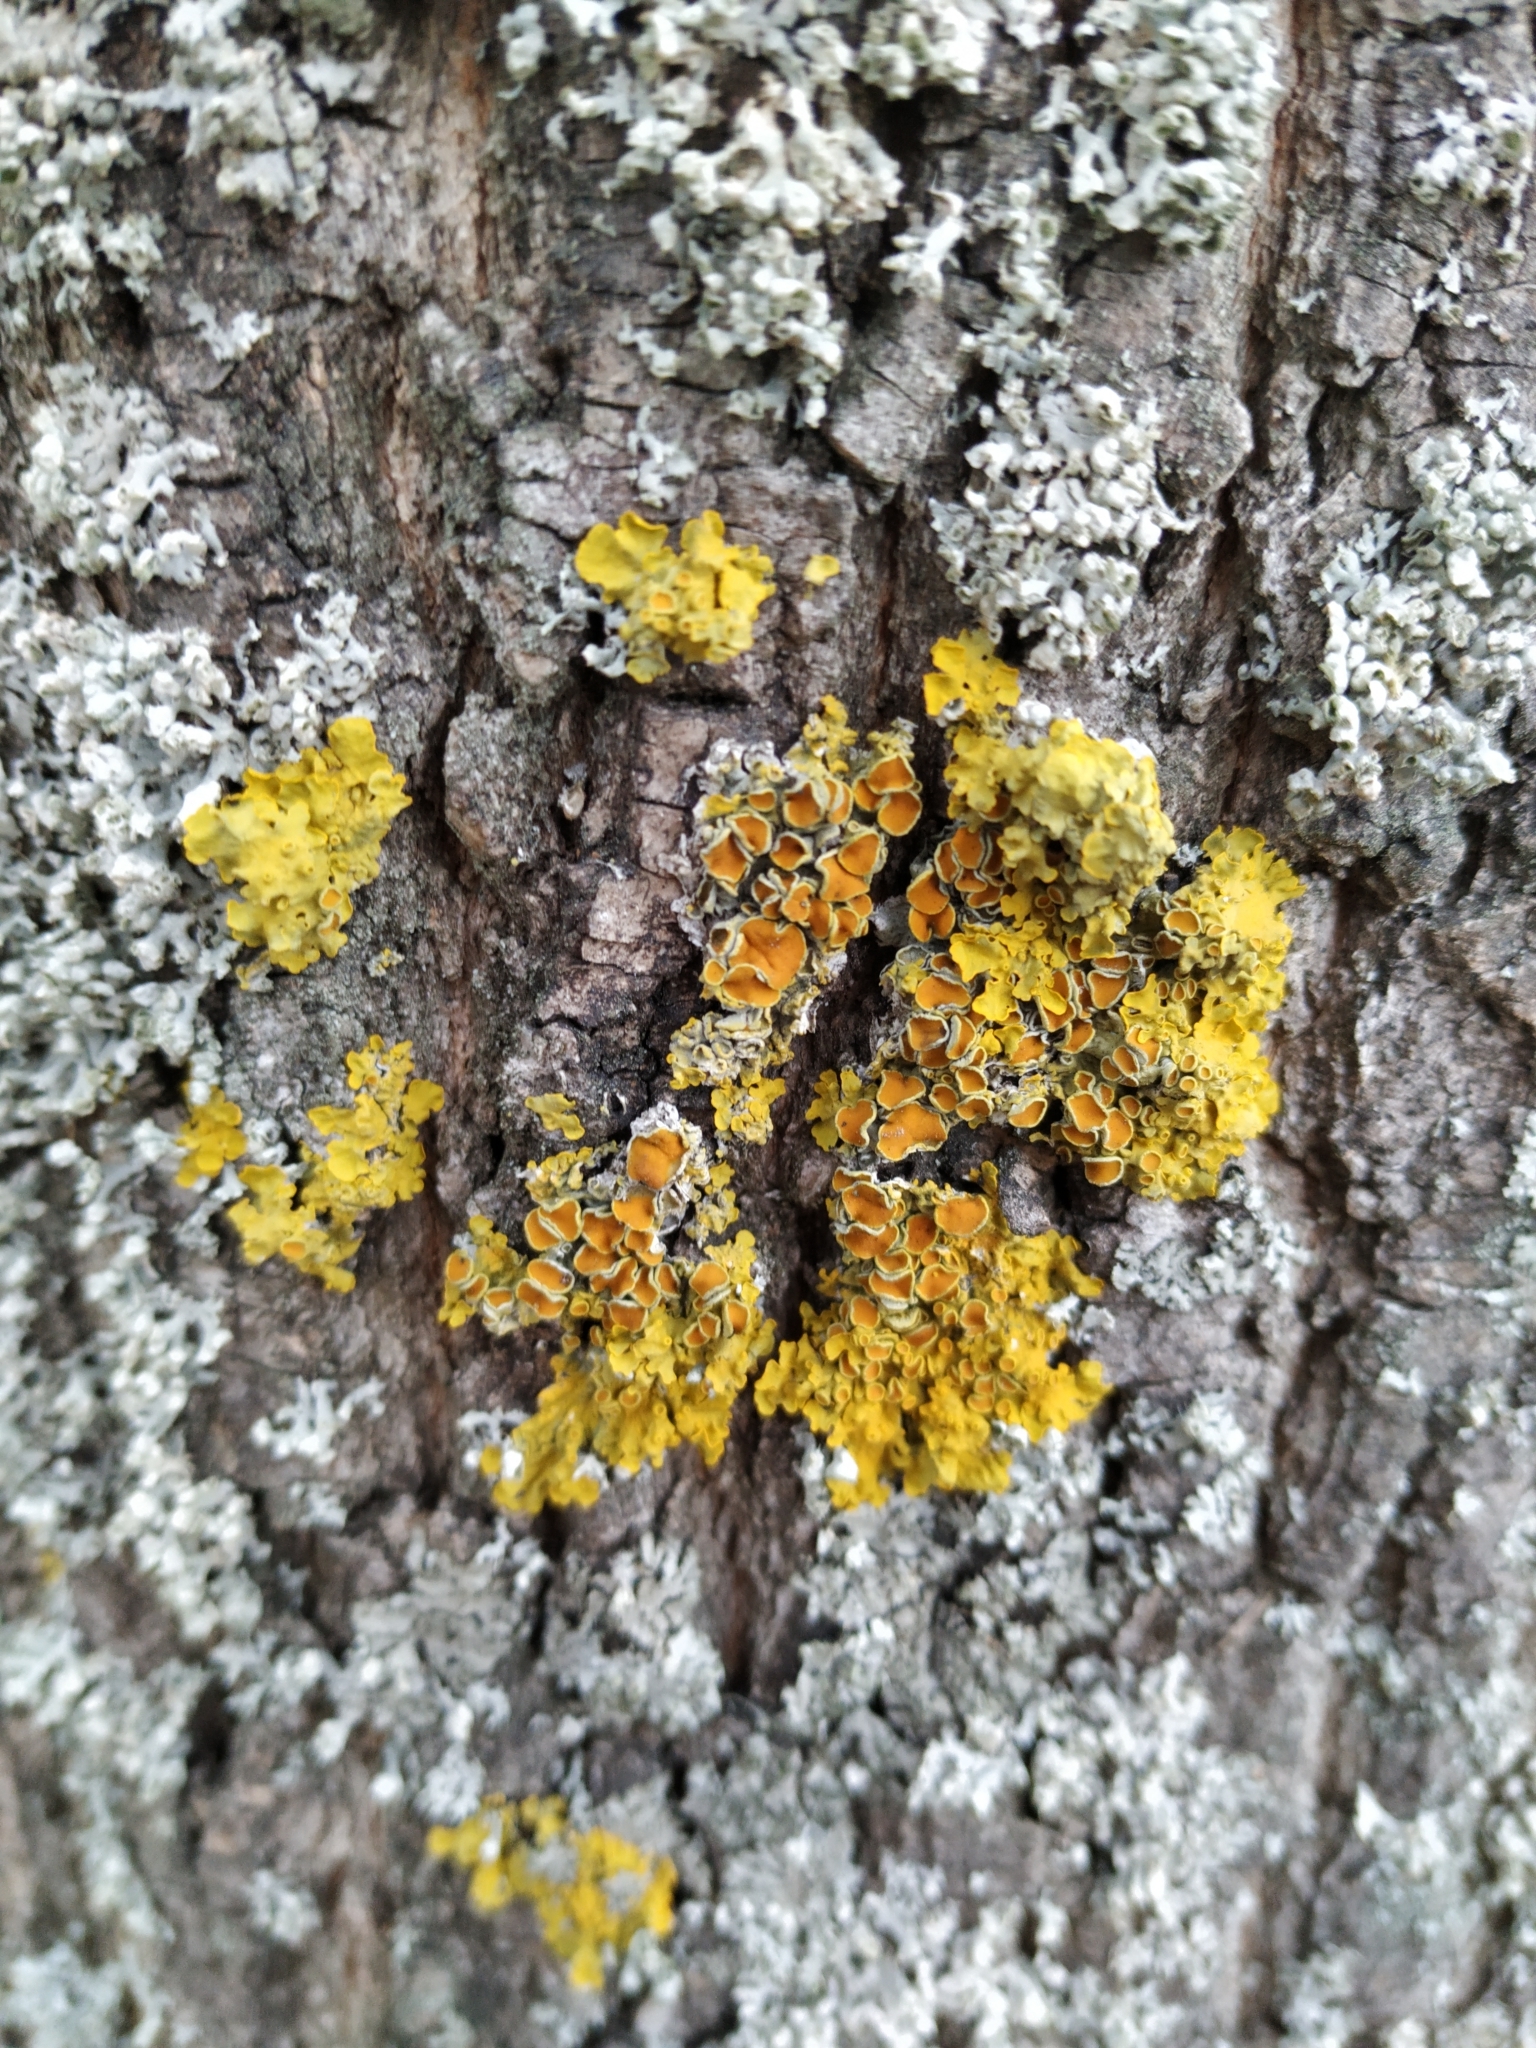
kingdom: Fungi
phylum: Ascomycota
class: Lecanoromycetes
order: Teloschistales
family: Teloschistaceae
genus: Xanthoria
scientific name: Xanthoria parietina
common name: Common orange lichen
